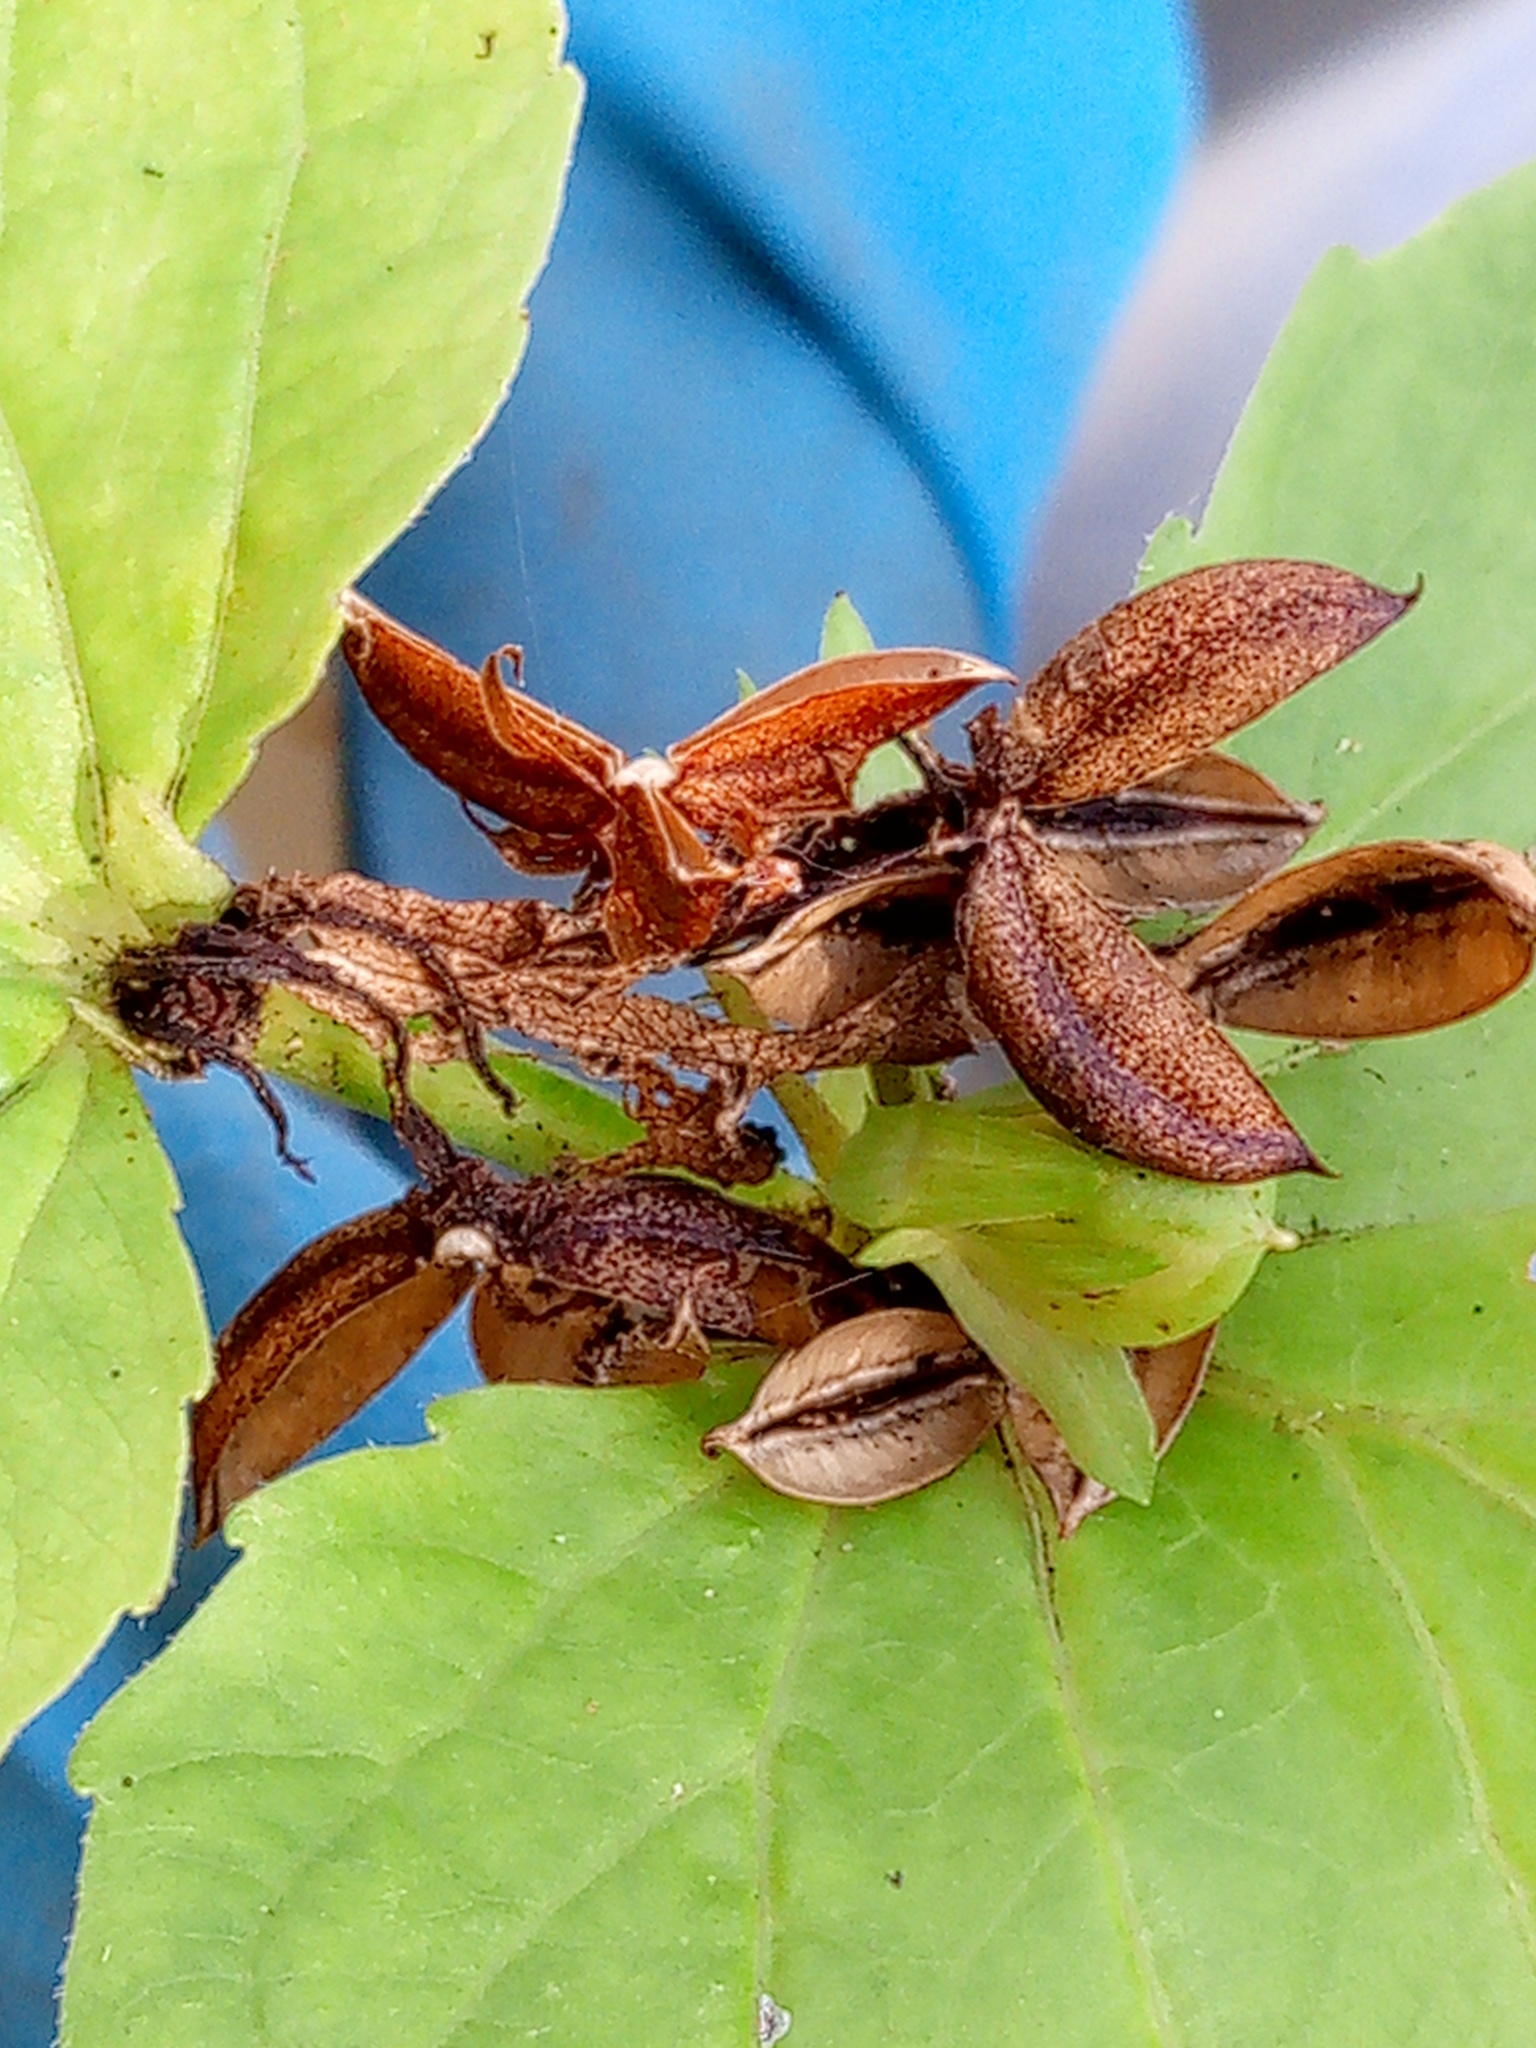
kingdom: Plantae
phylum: Tracheophyta
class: Magnoliopsida
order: Malpighiales
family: Violaceae
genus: Viola
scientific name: Viola mirabilis
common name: Wonder violet
